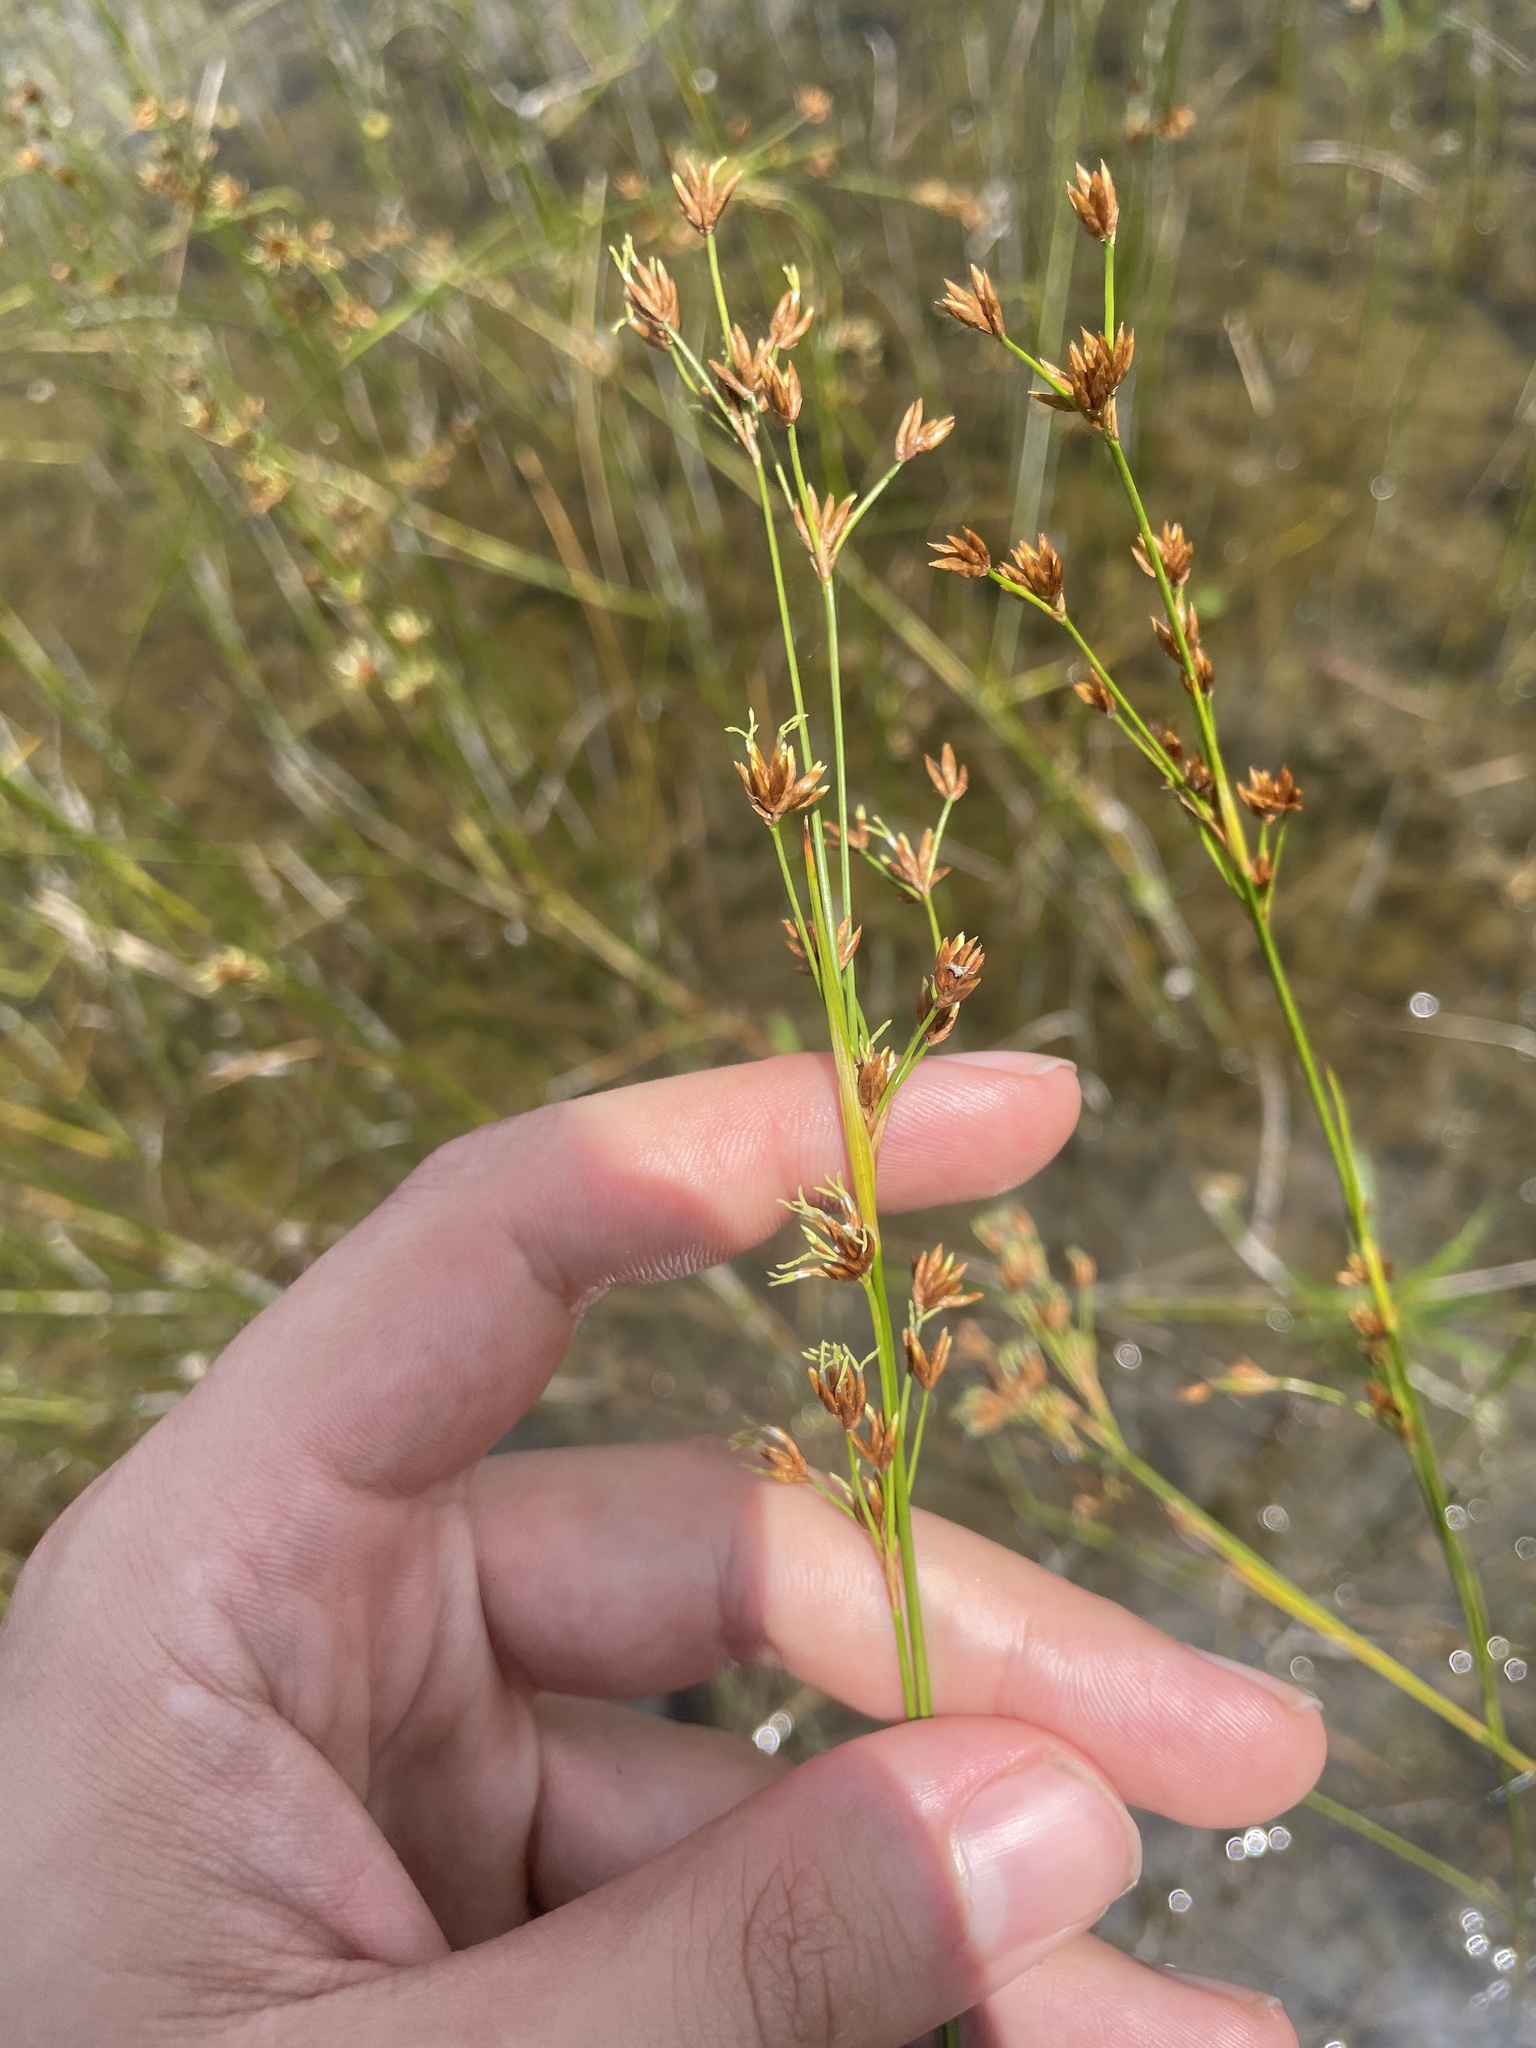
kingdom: Plantae
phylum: Tracheophyta
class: Liliopsida
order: Poales
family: Cyperaceae
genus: Cladium
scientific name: Cladium mariscoides
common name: Smooth sawgrass
